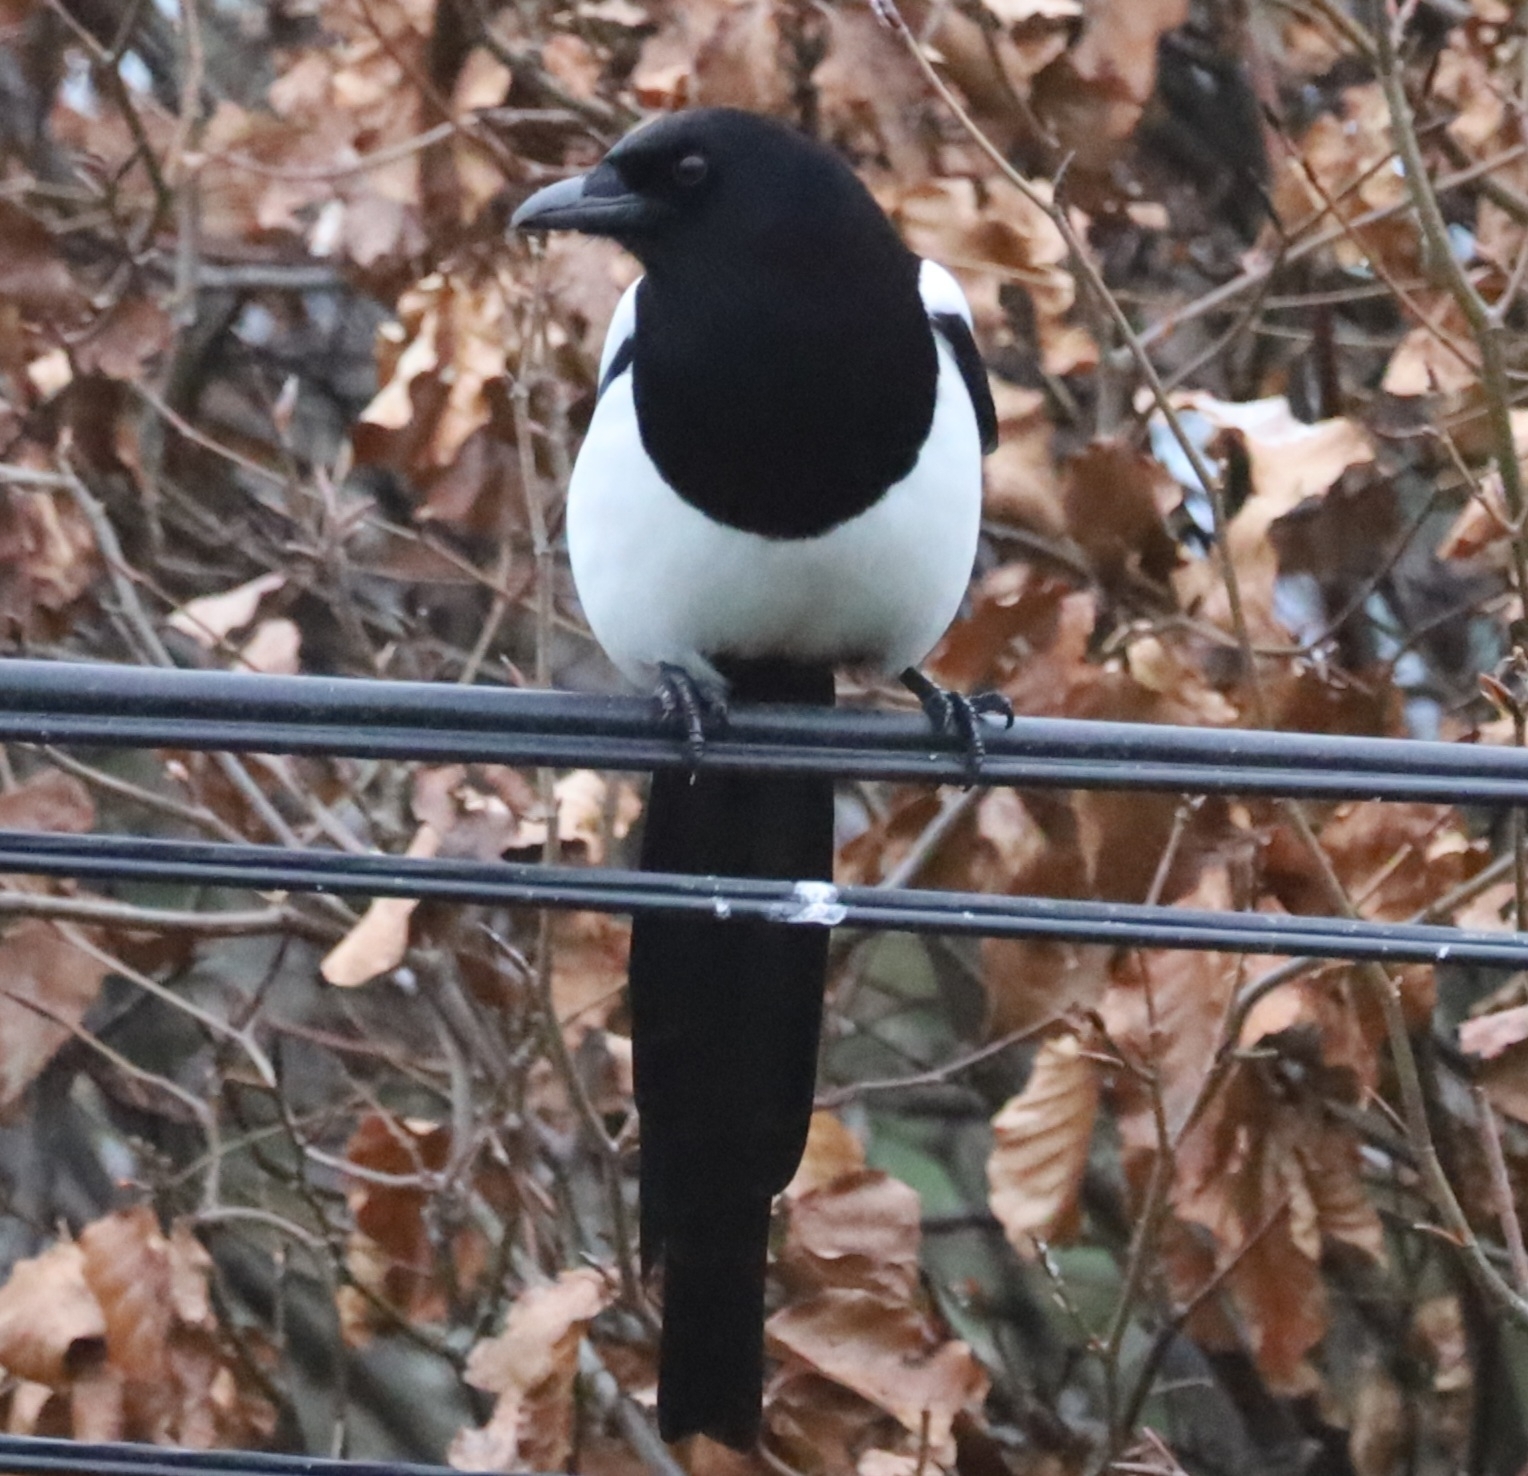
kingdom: Animalia
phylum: Chordata
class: Aves
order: Passeriformes
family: Corvidae
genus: Pica
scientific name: Pica pica
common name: Eurasian magpie
